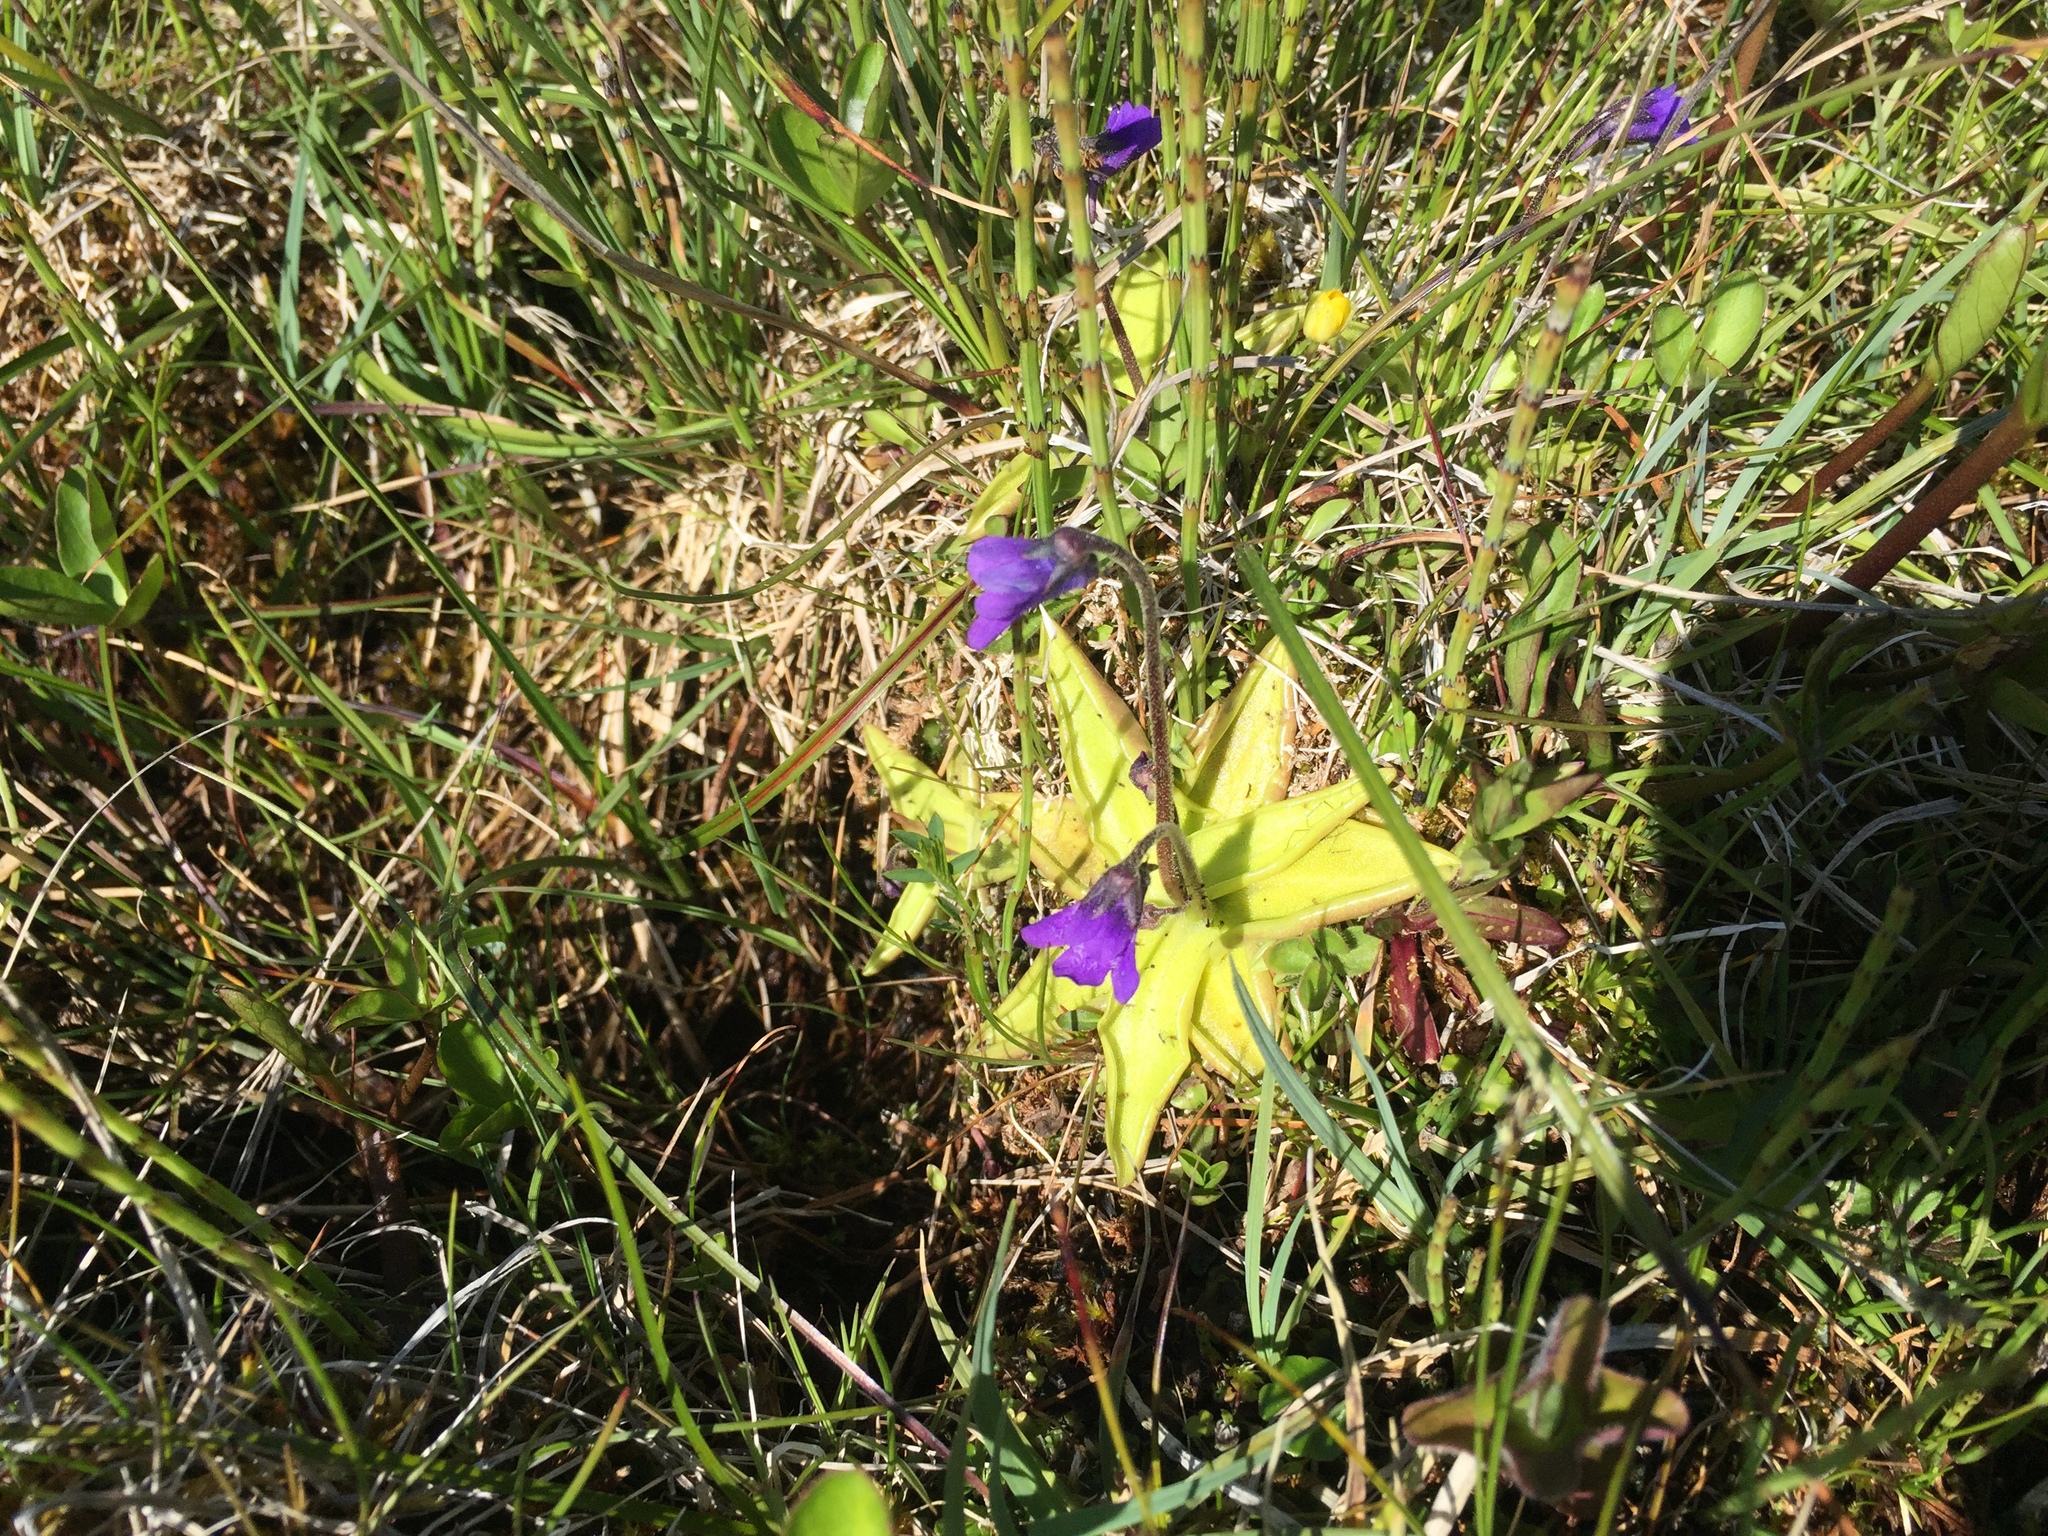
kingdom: Plantae
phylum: Tracheophyta
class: Magnoliopsida
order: Lamiales
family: Lentibulariaceae
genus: Pinguicula
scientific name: Pinguicula vulgaris
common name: Common butterwort
